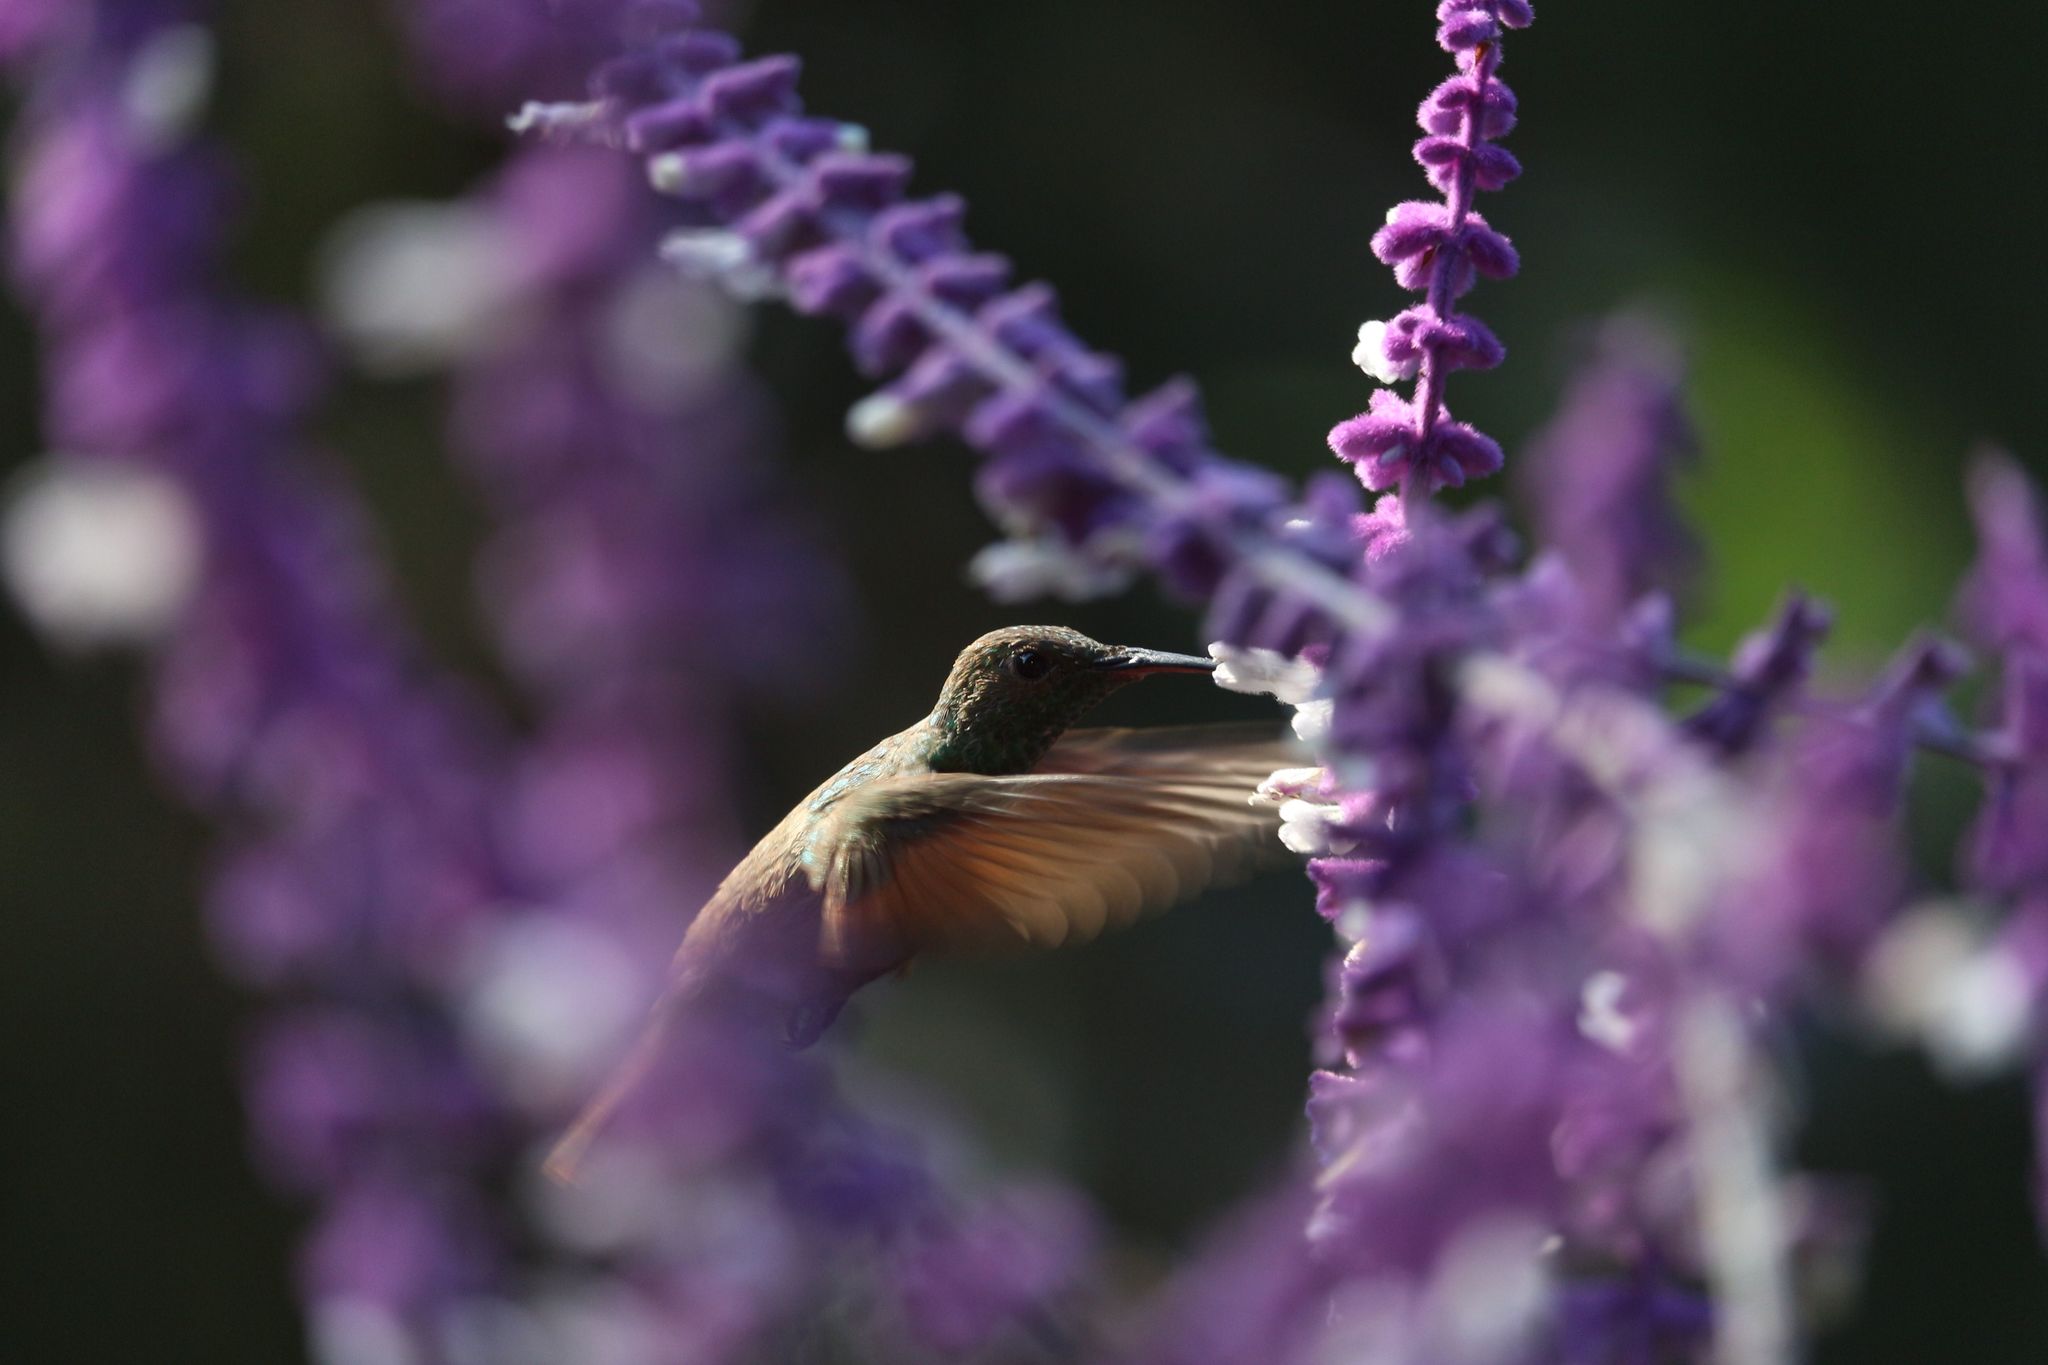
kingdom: Animalia
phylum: Chordata
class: Aves
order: Apodiformes
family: Trochilidae
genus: Saucerottia
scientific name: Saucerottia beryllina
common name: Berylline hummingbird
